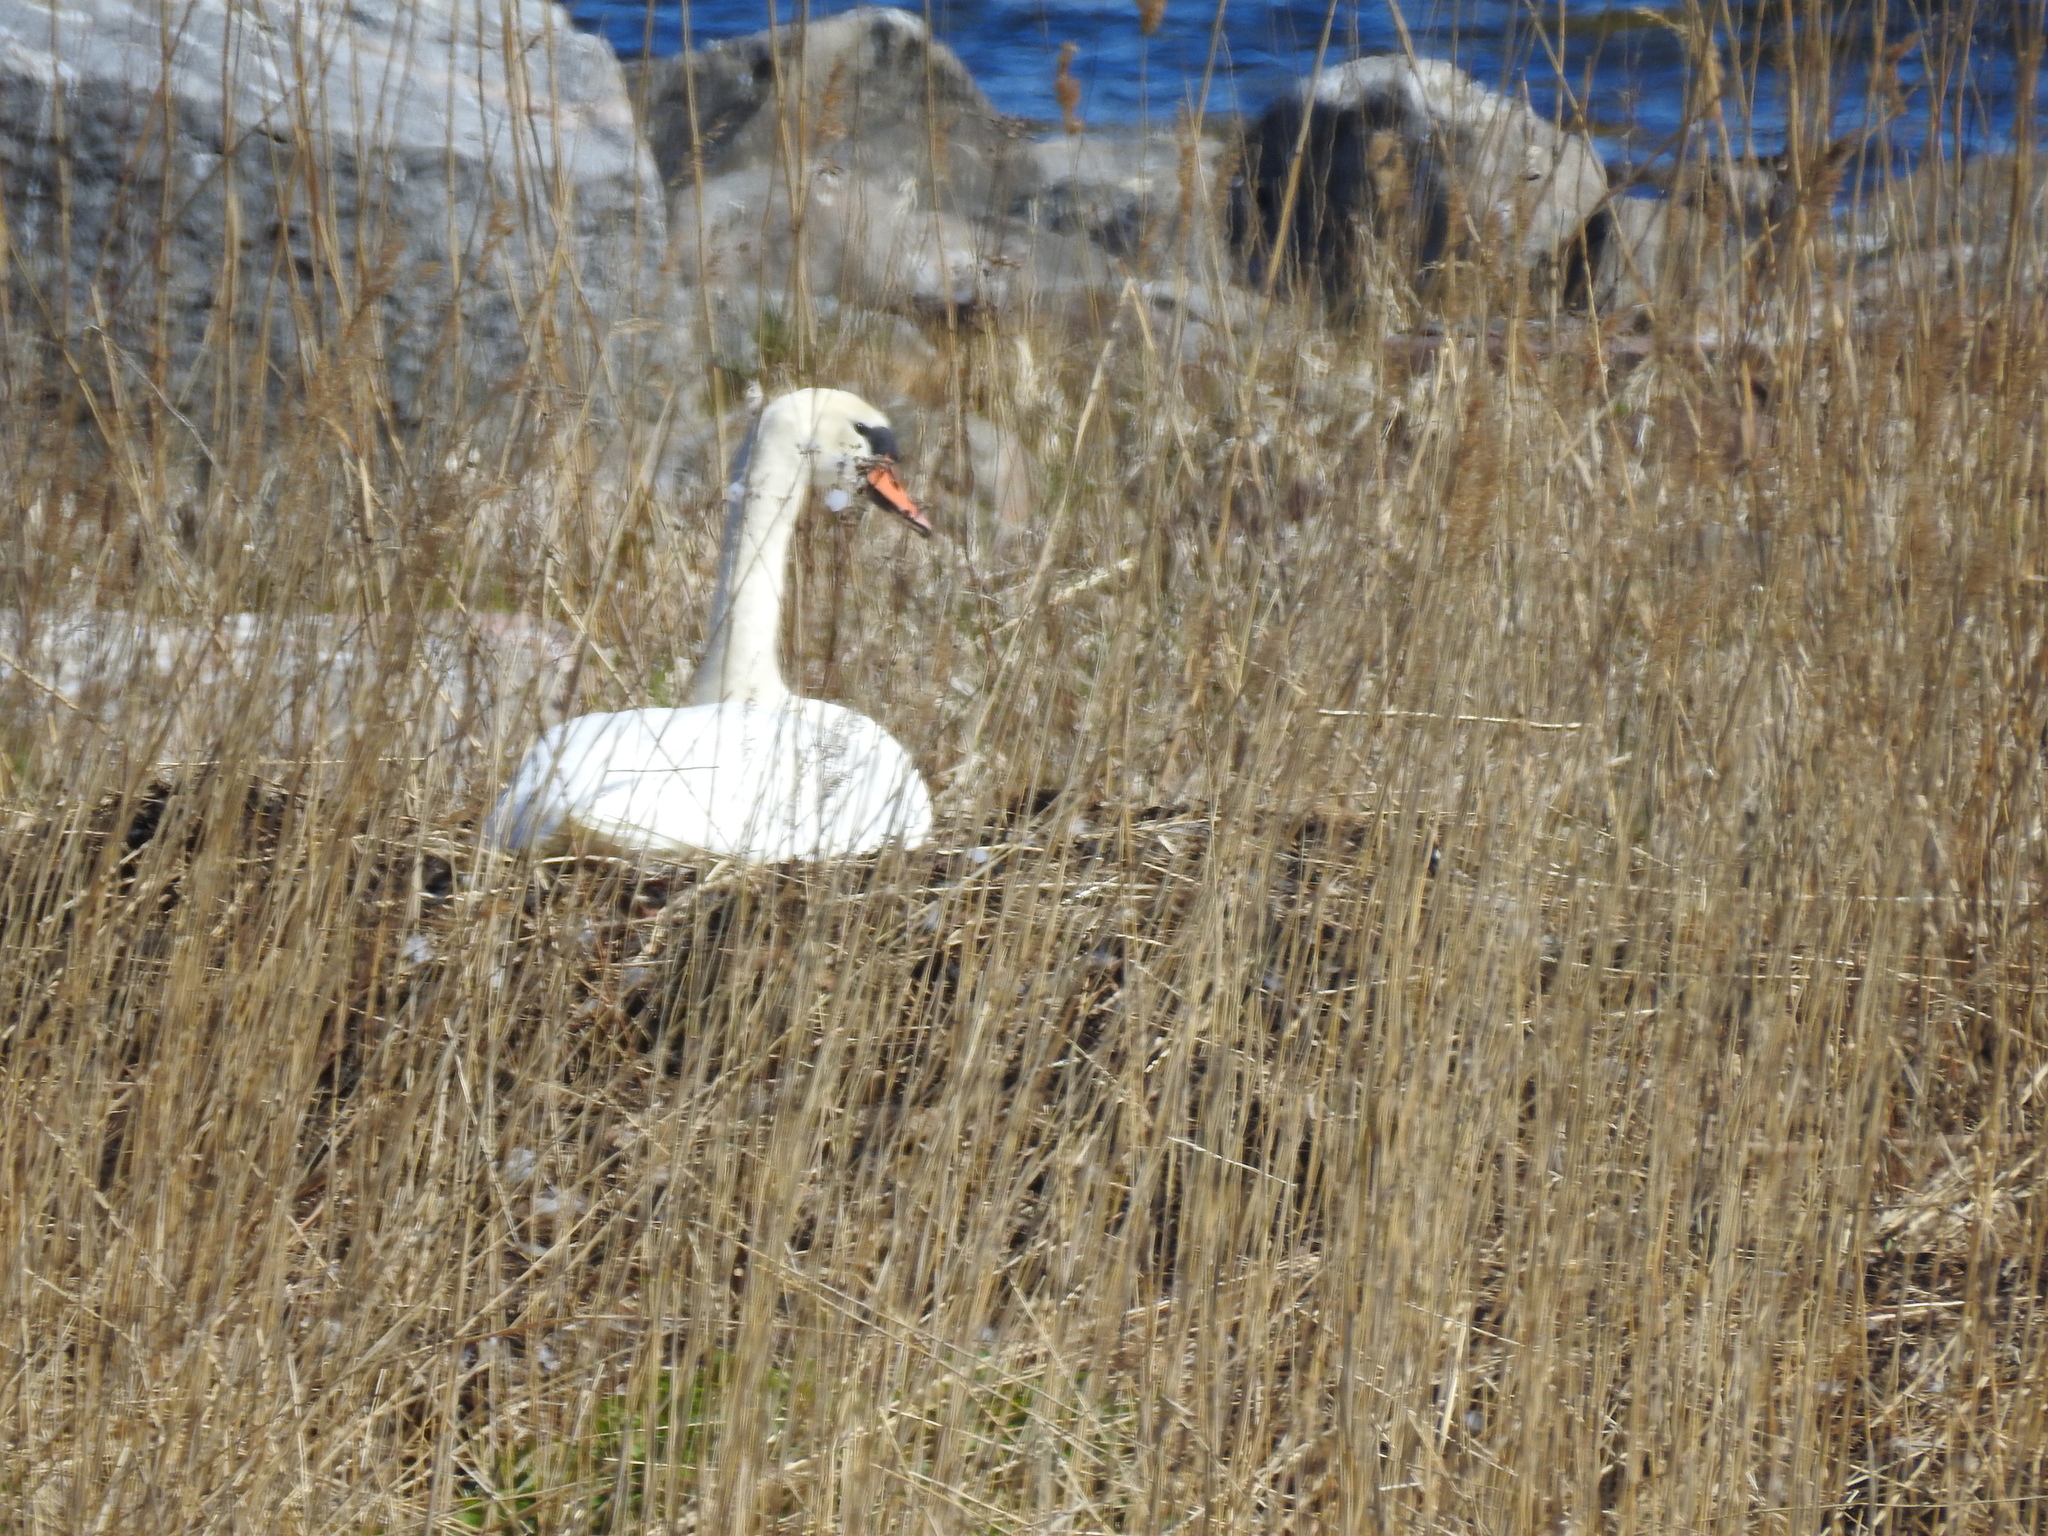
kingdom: Animalia
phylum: Chordata
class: Aves
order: Anseriformes
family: Anatidae
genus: Cygnus
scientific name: Cygnus olor
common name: Mute swan
